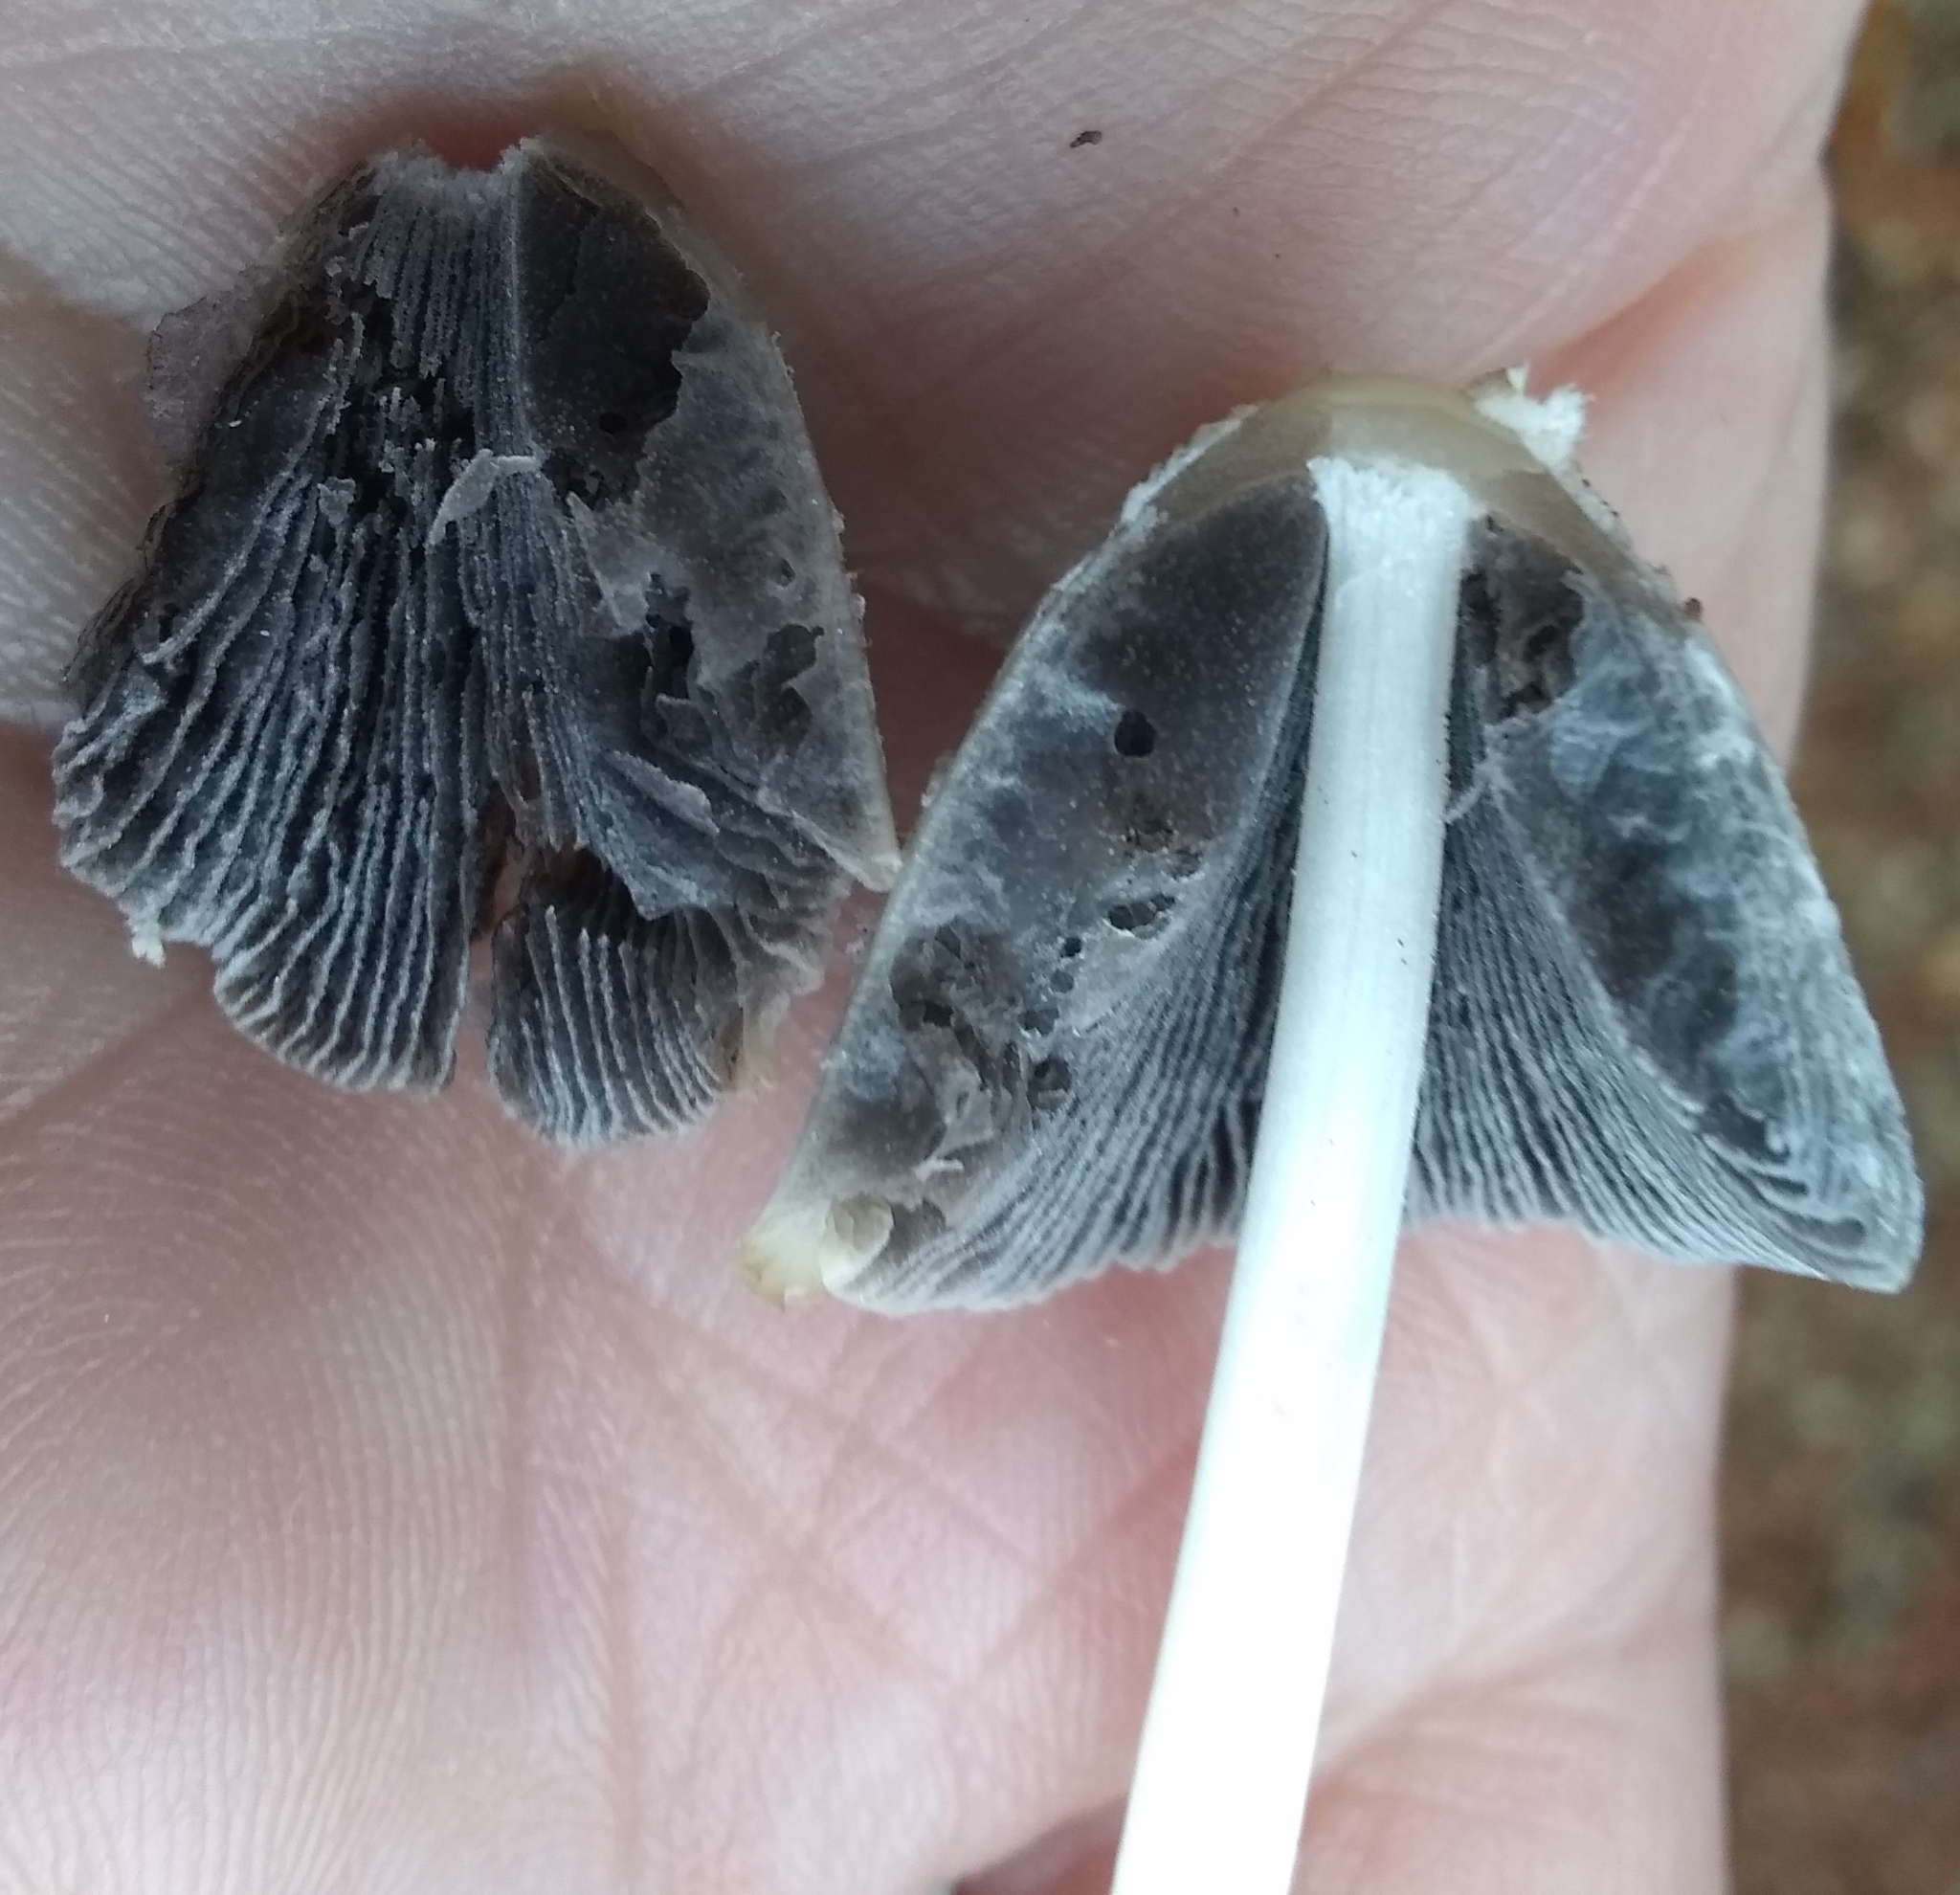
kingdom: Fungi
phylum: Basidiomycota
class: Agaricomycetes
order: Agaricales
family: Psathyrellaceae
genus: Coprinellus
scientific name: Coprinellus flocculosus
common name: Flocculose inkcap
